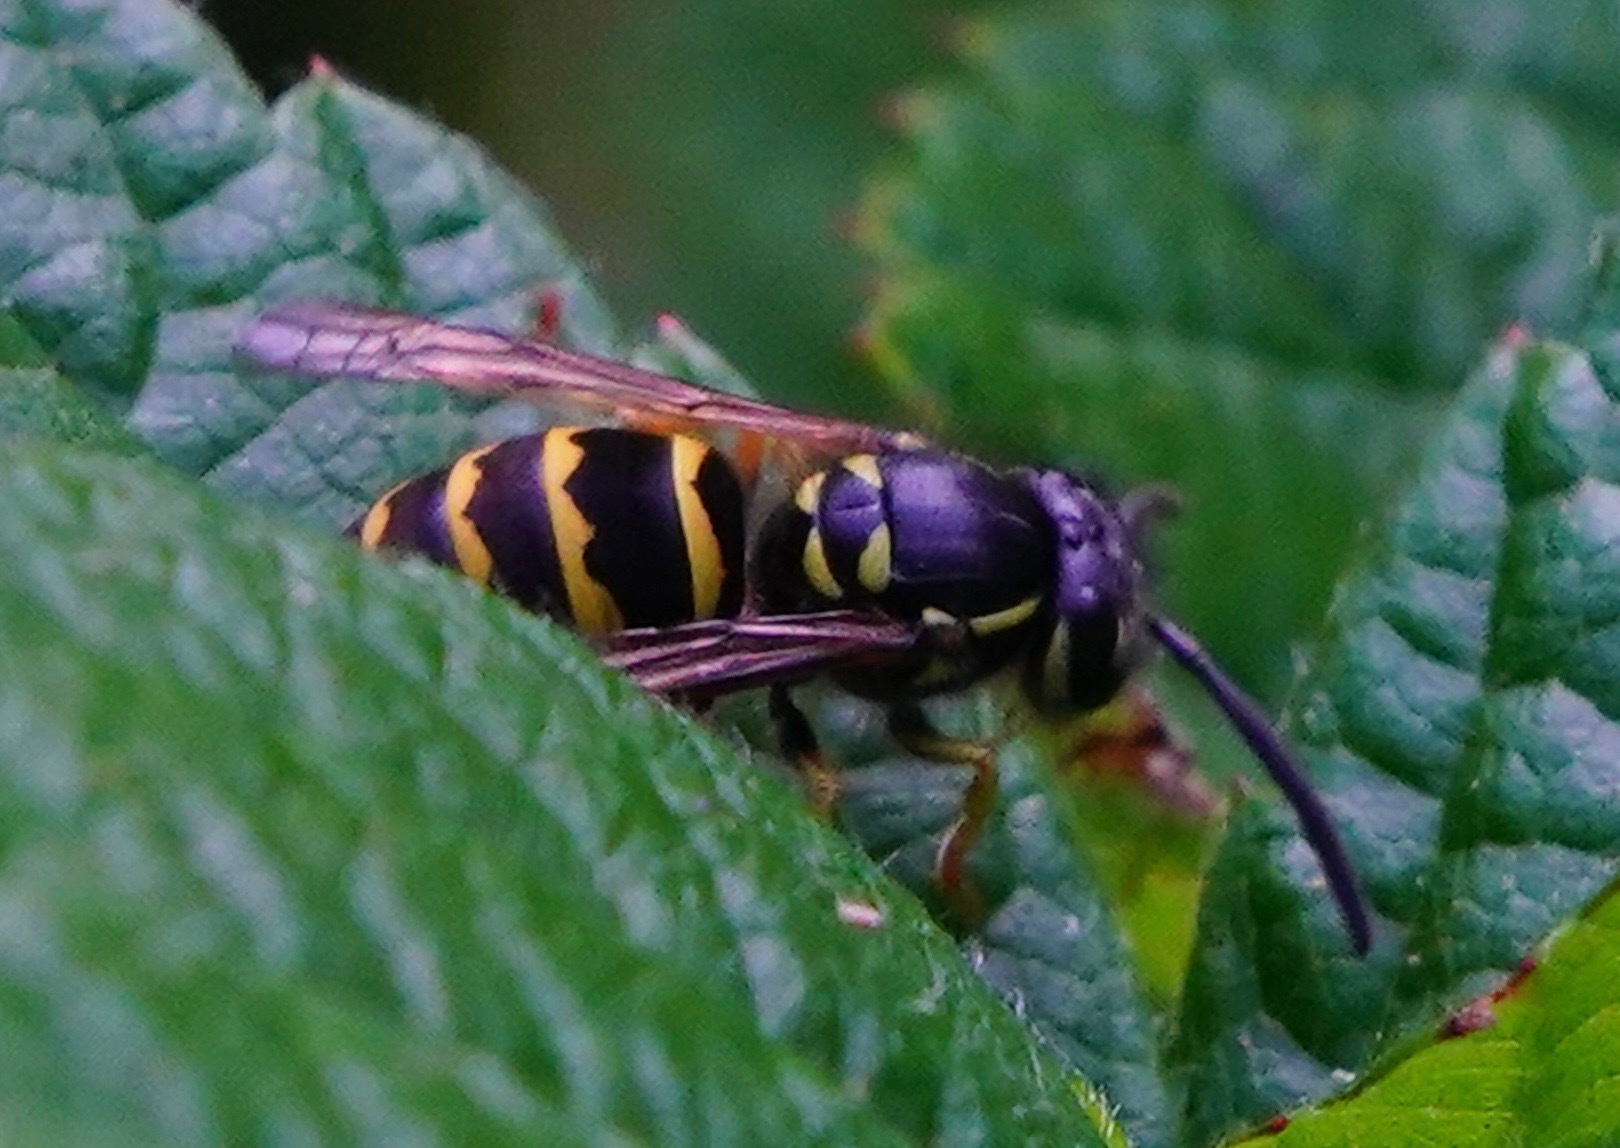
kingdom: Animalia
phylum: Arthropoda
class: Insecta
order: Hymenoptera
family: Vespidae
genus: Vespula
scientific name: Vespula alascensis
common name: Alaska yellowjacket
